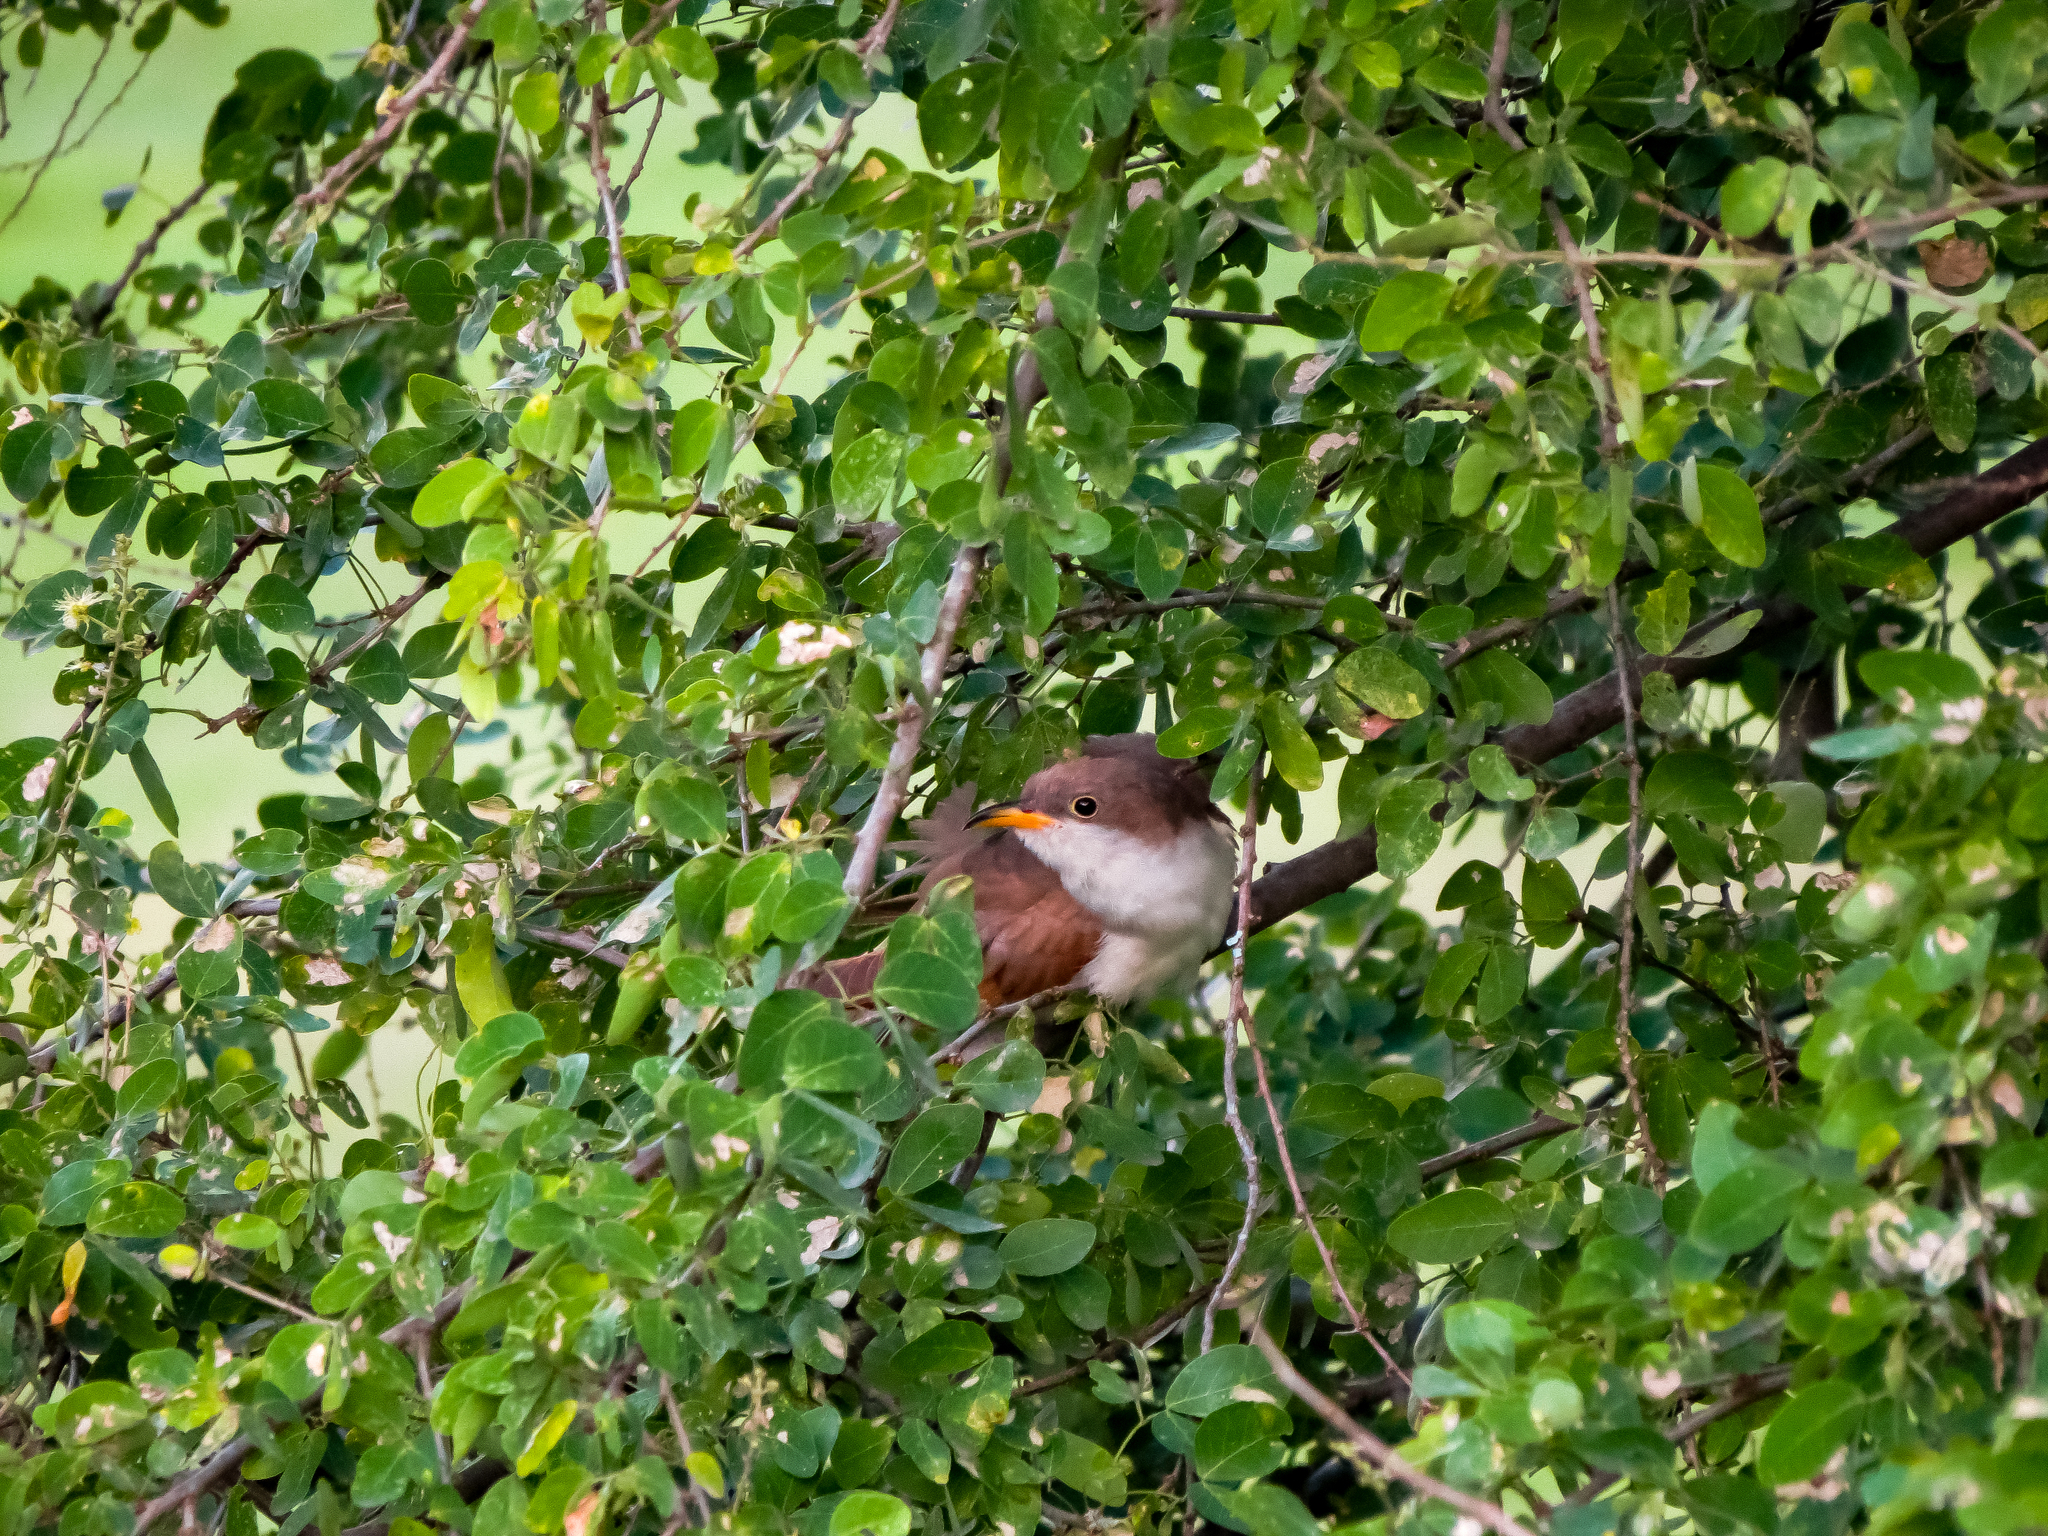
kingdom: Animalia
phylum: Chordata
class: Aves
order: Cuculiformes
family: Cuculidae
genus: Coccyzus
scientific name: Coccyzus americanus
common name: Yellow-billed cuckoo
